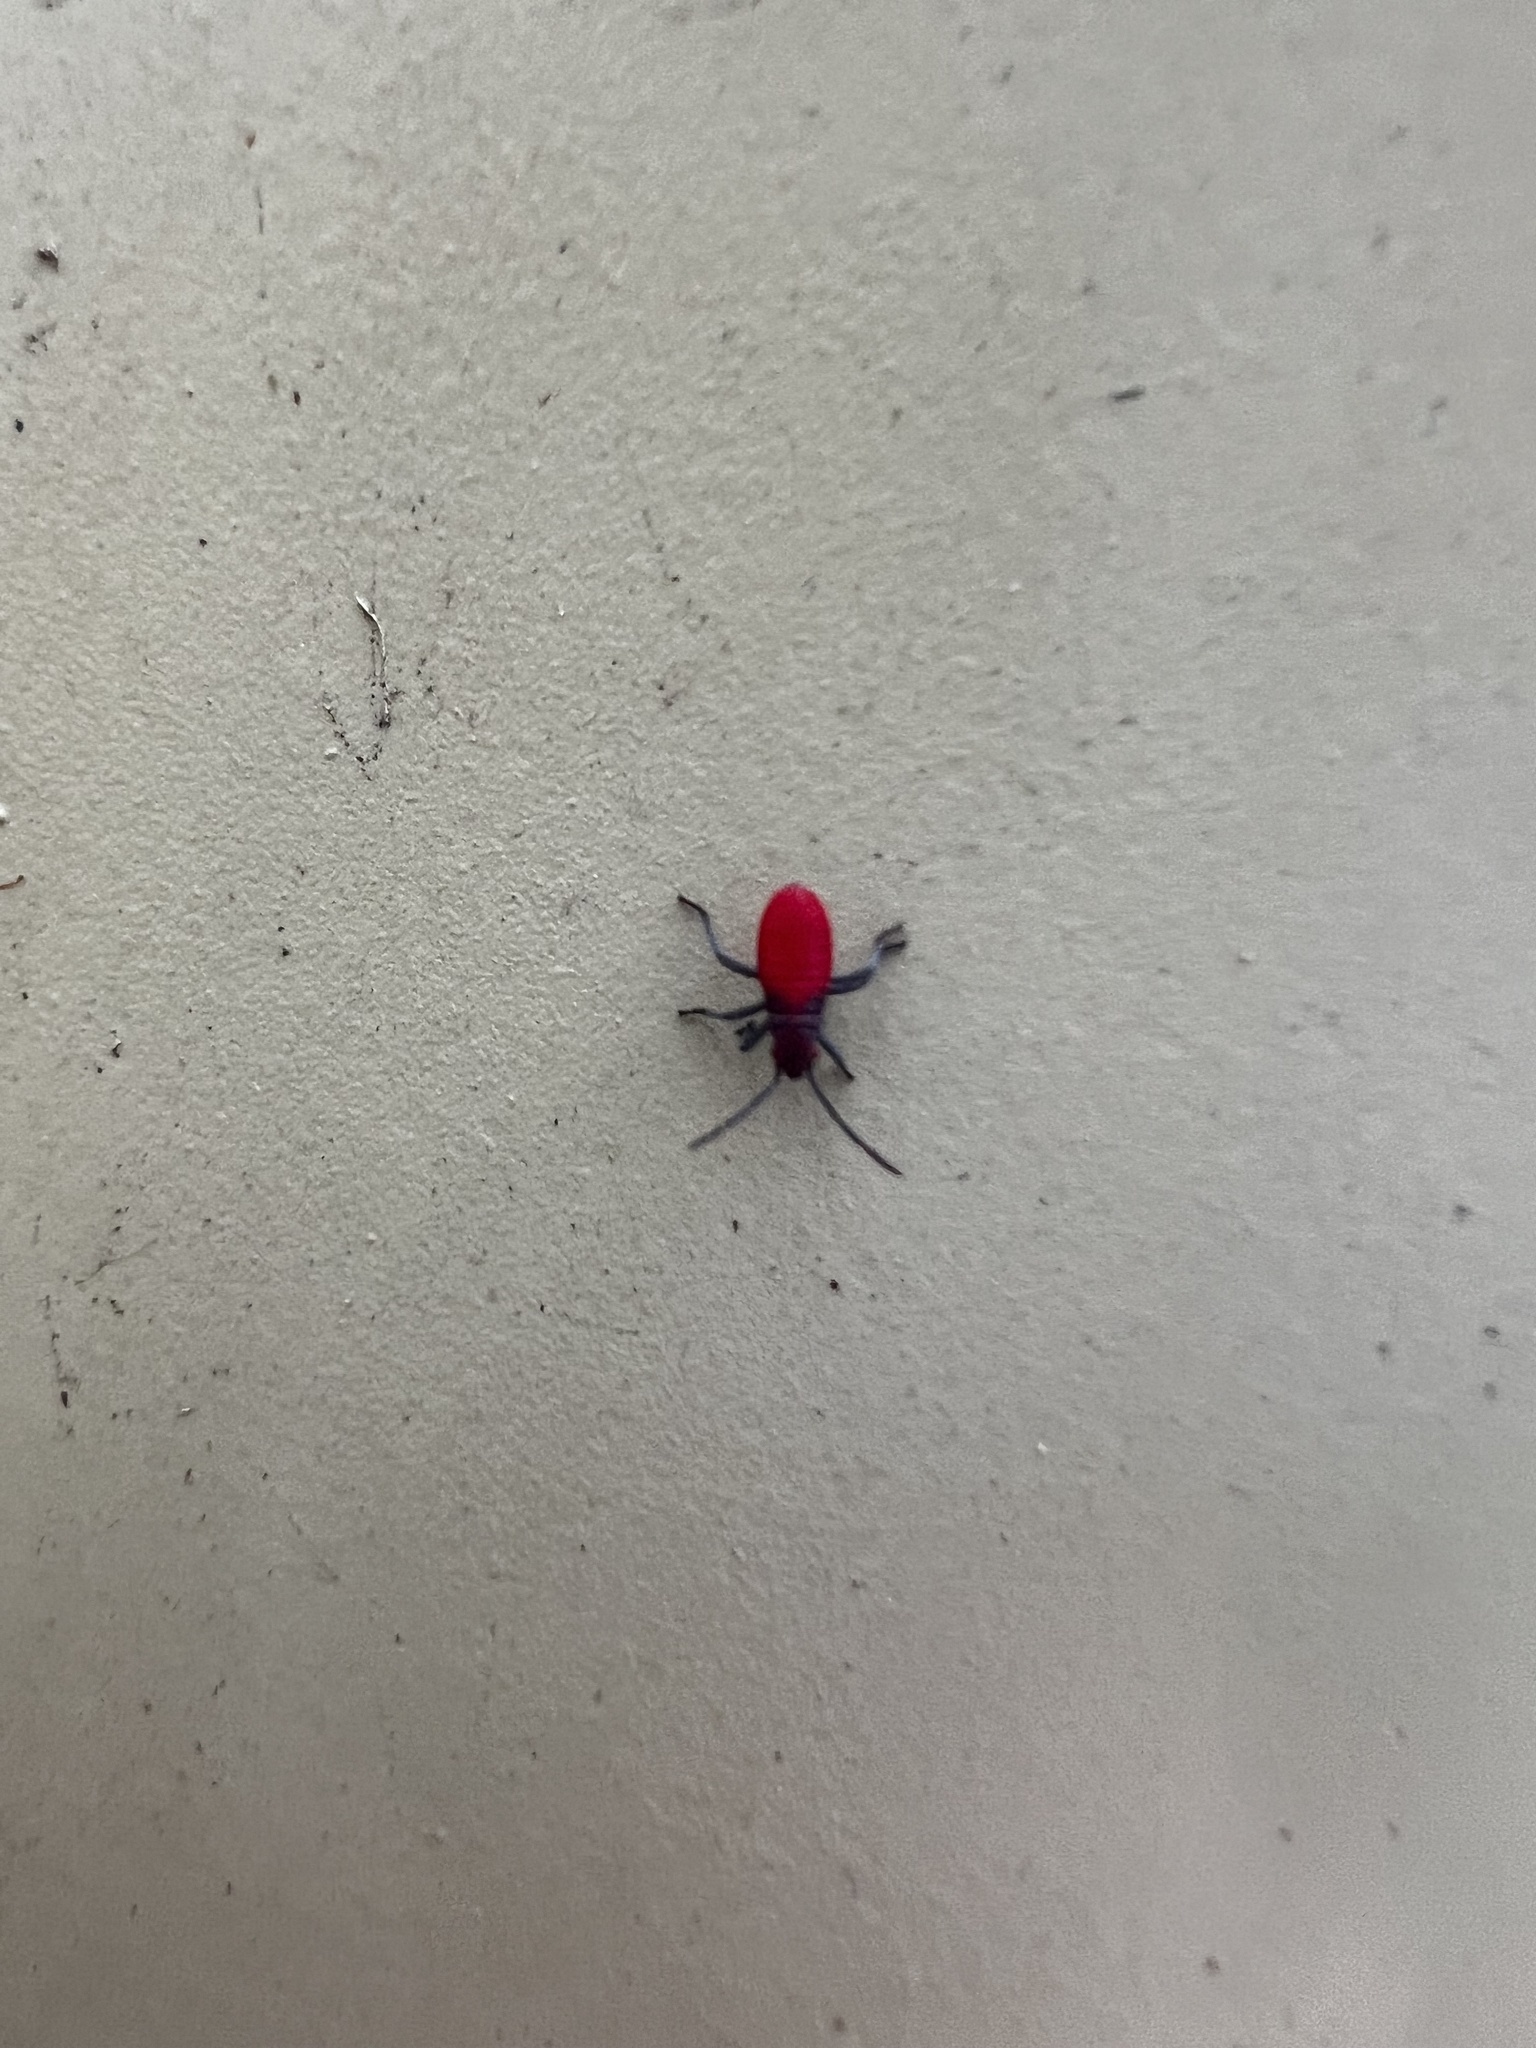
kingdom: Animalia
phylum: Arthropoda
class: Insecta
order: Hemiptera
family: Rhopalidae
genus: Jadera
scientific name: Jadera haematoloma
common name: Red-shouldered bug
